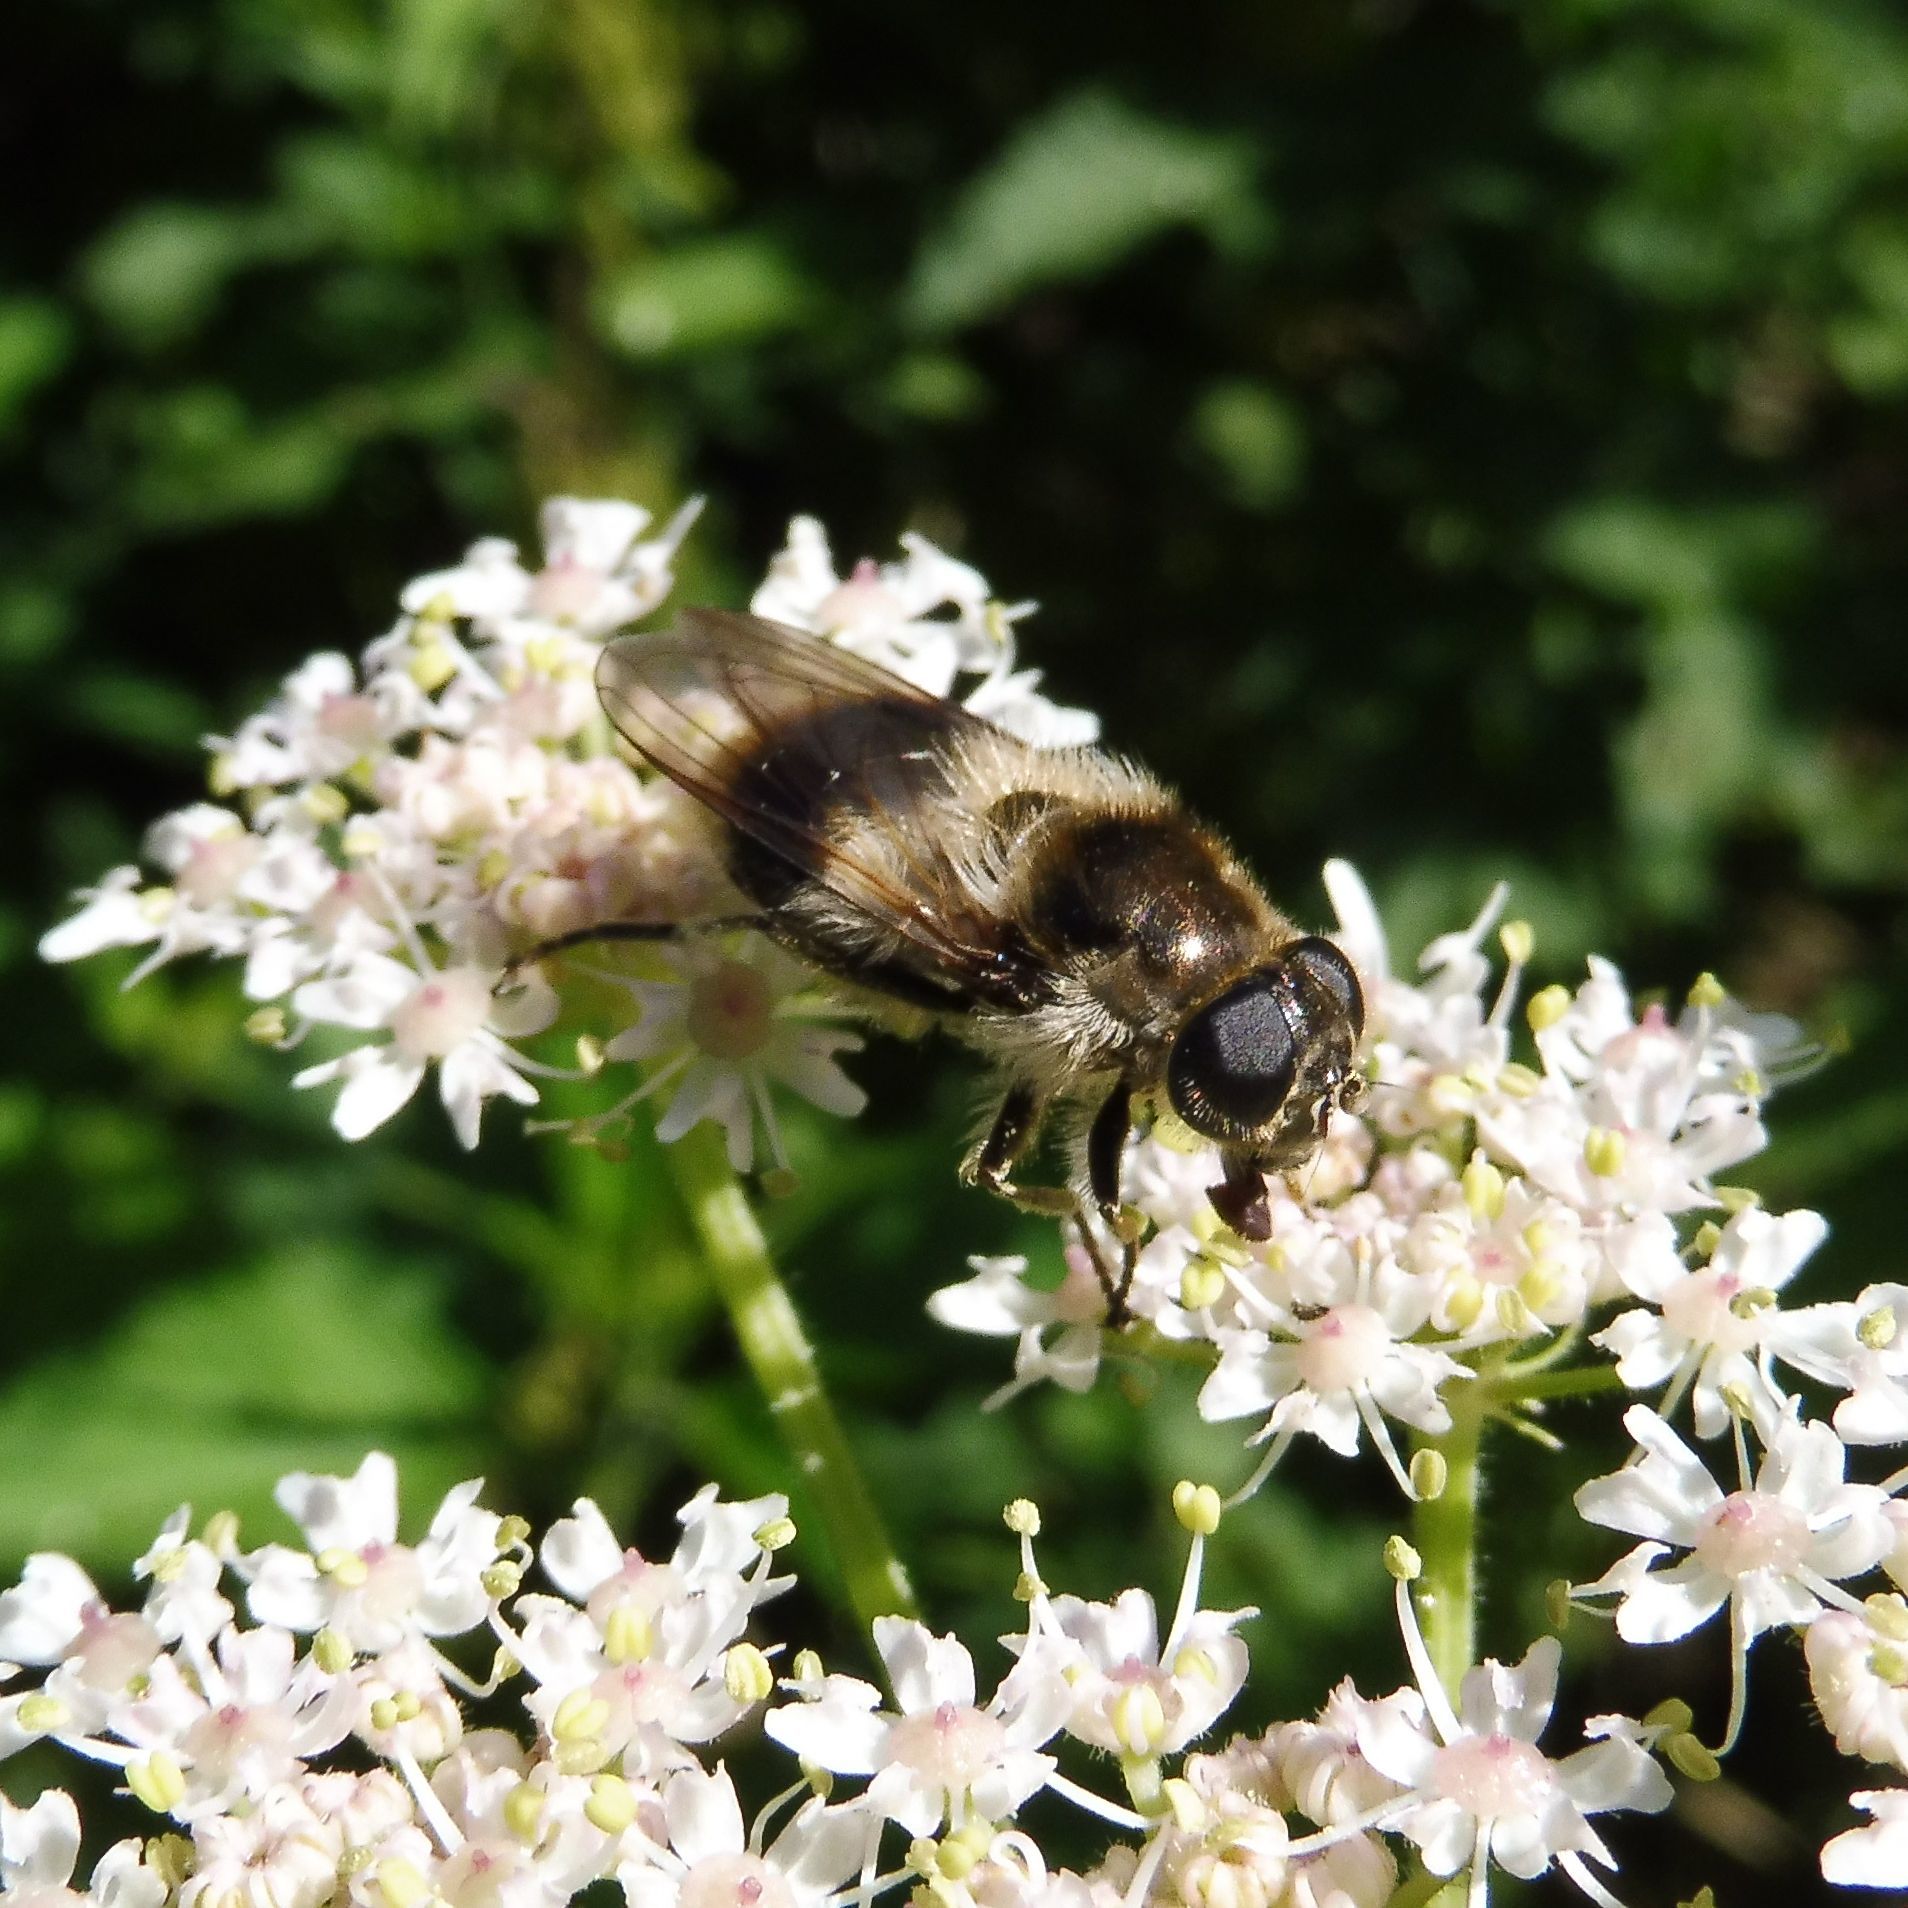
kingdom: Animalia
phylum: Arthropoda
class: Insecta
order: Diptera
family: Syrphidae
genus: Cheilosia
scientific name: Cheilosia illustrata
